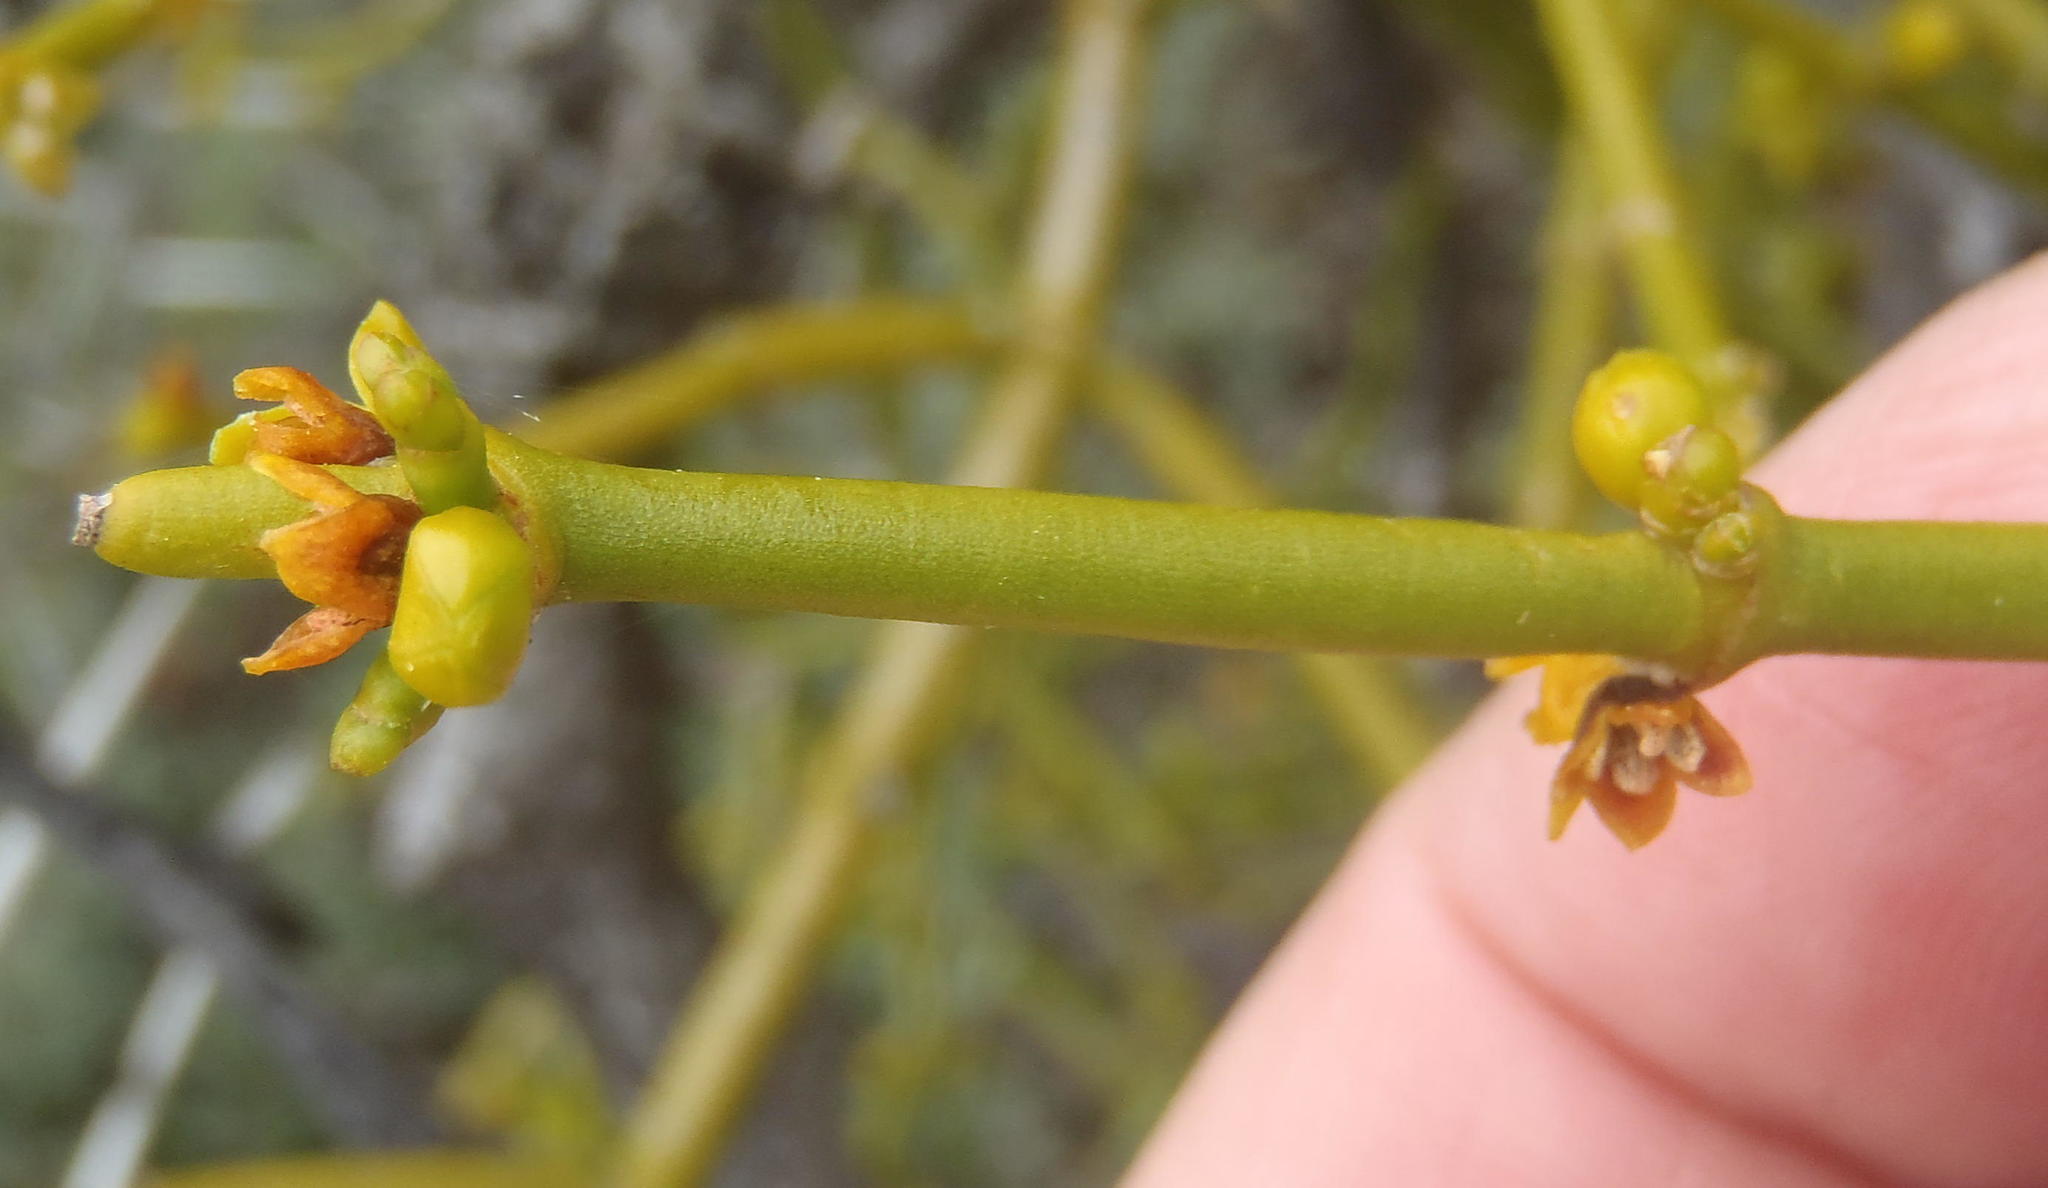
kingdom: Plantae
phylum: Tracheophyta
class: Magnoliopsida
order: Santalales
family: Viscaceae
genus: Viscum
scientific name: Viscum continuum
